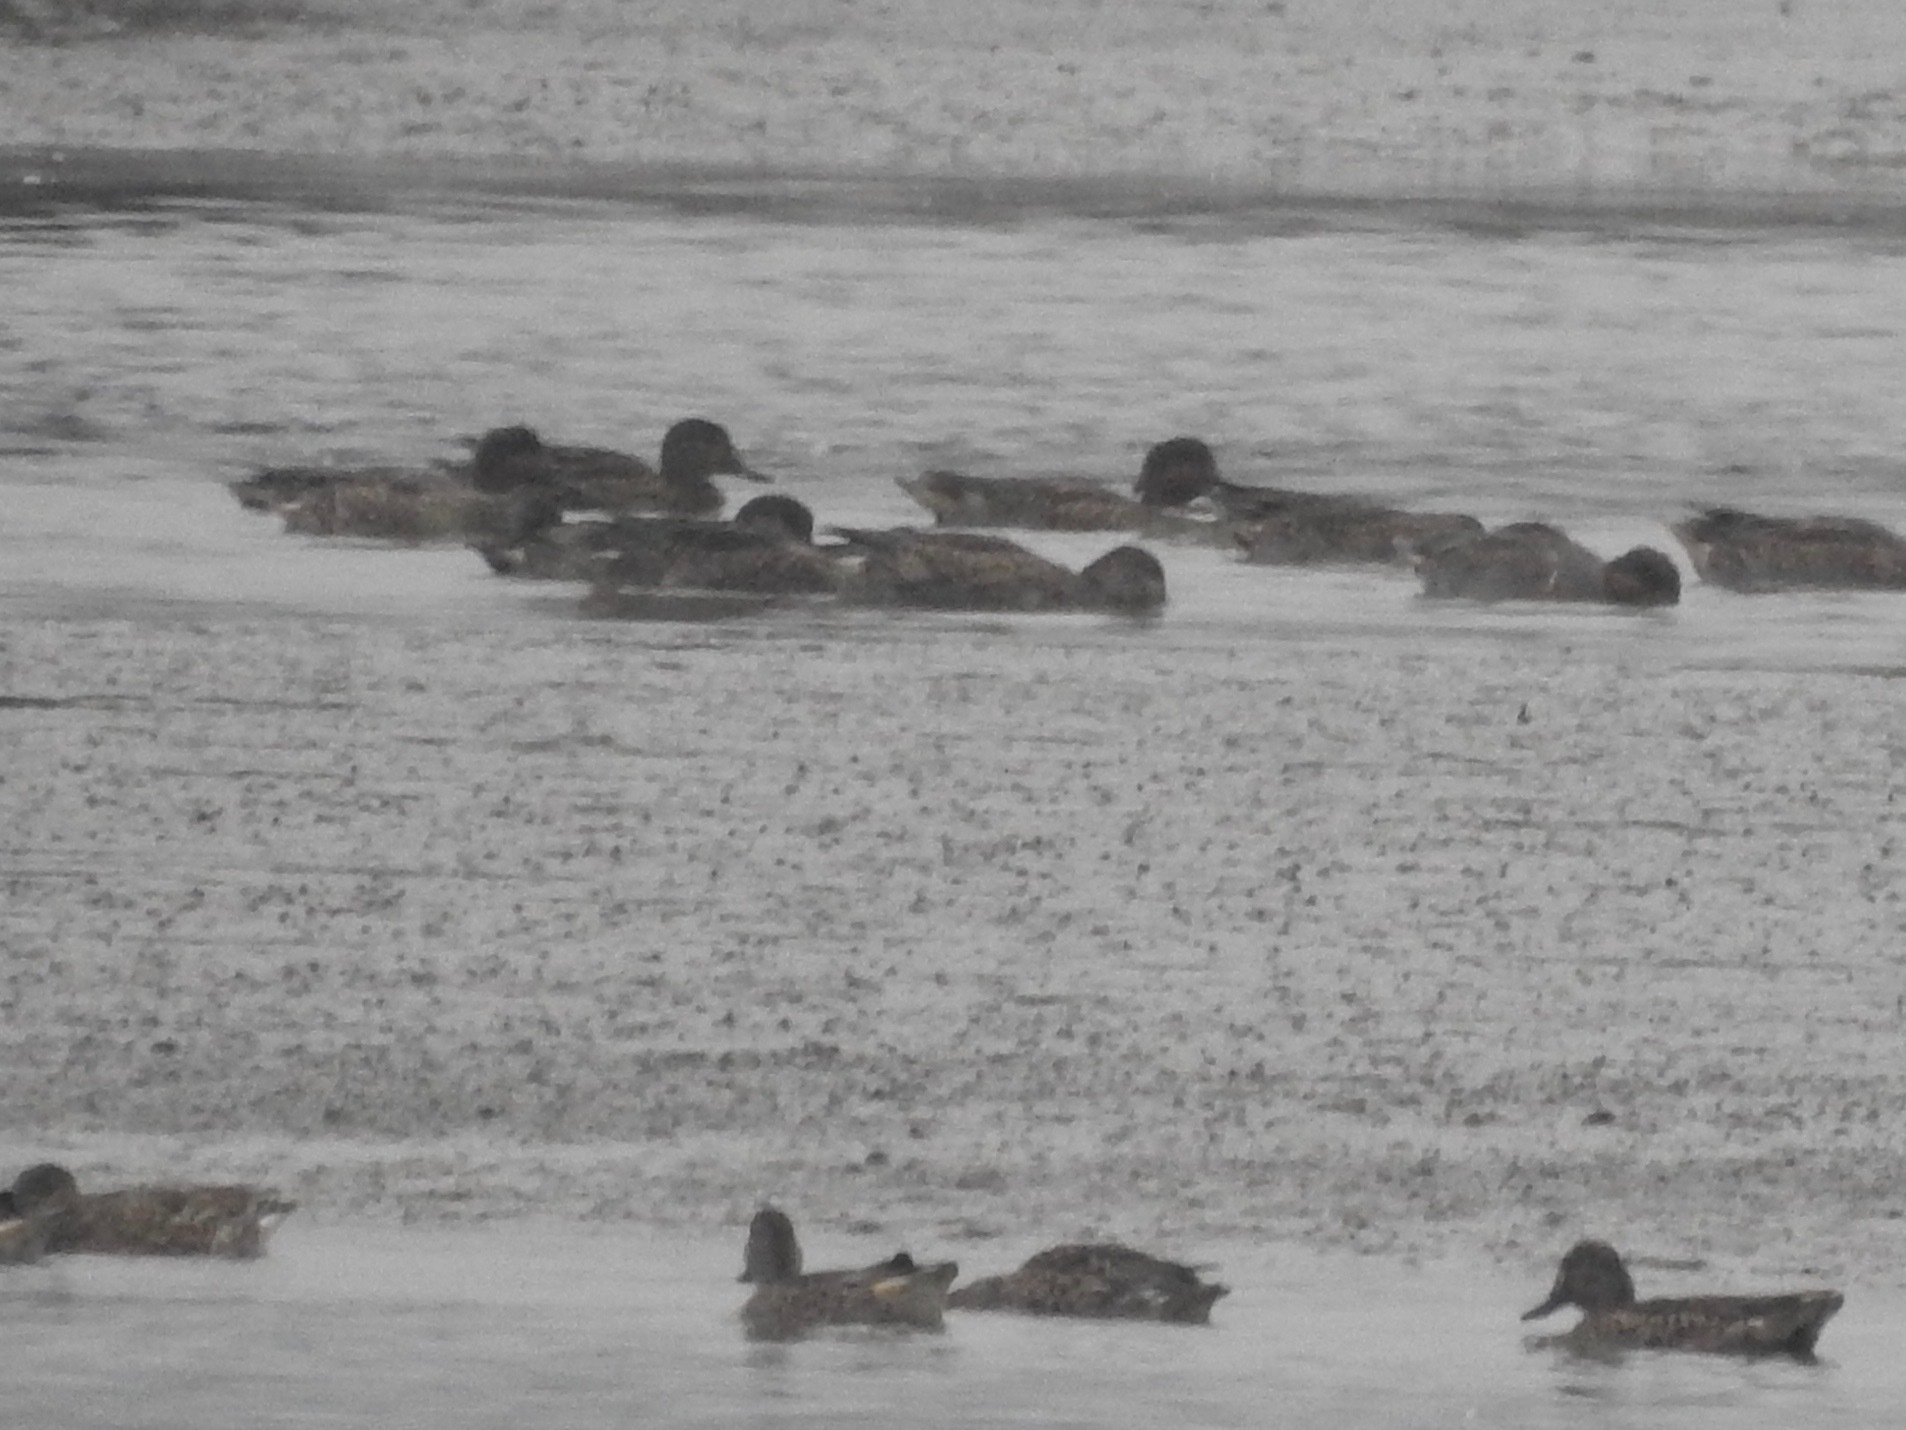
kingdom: Animalia
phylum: Chordata
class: Aves
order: Anseriformes
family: Anatidae
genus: Anas
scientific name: Anas crecca
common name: Eurasian teal
